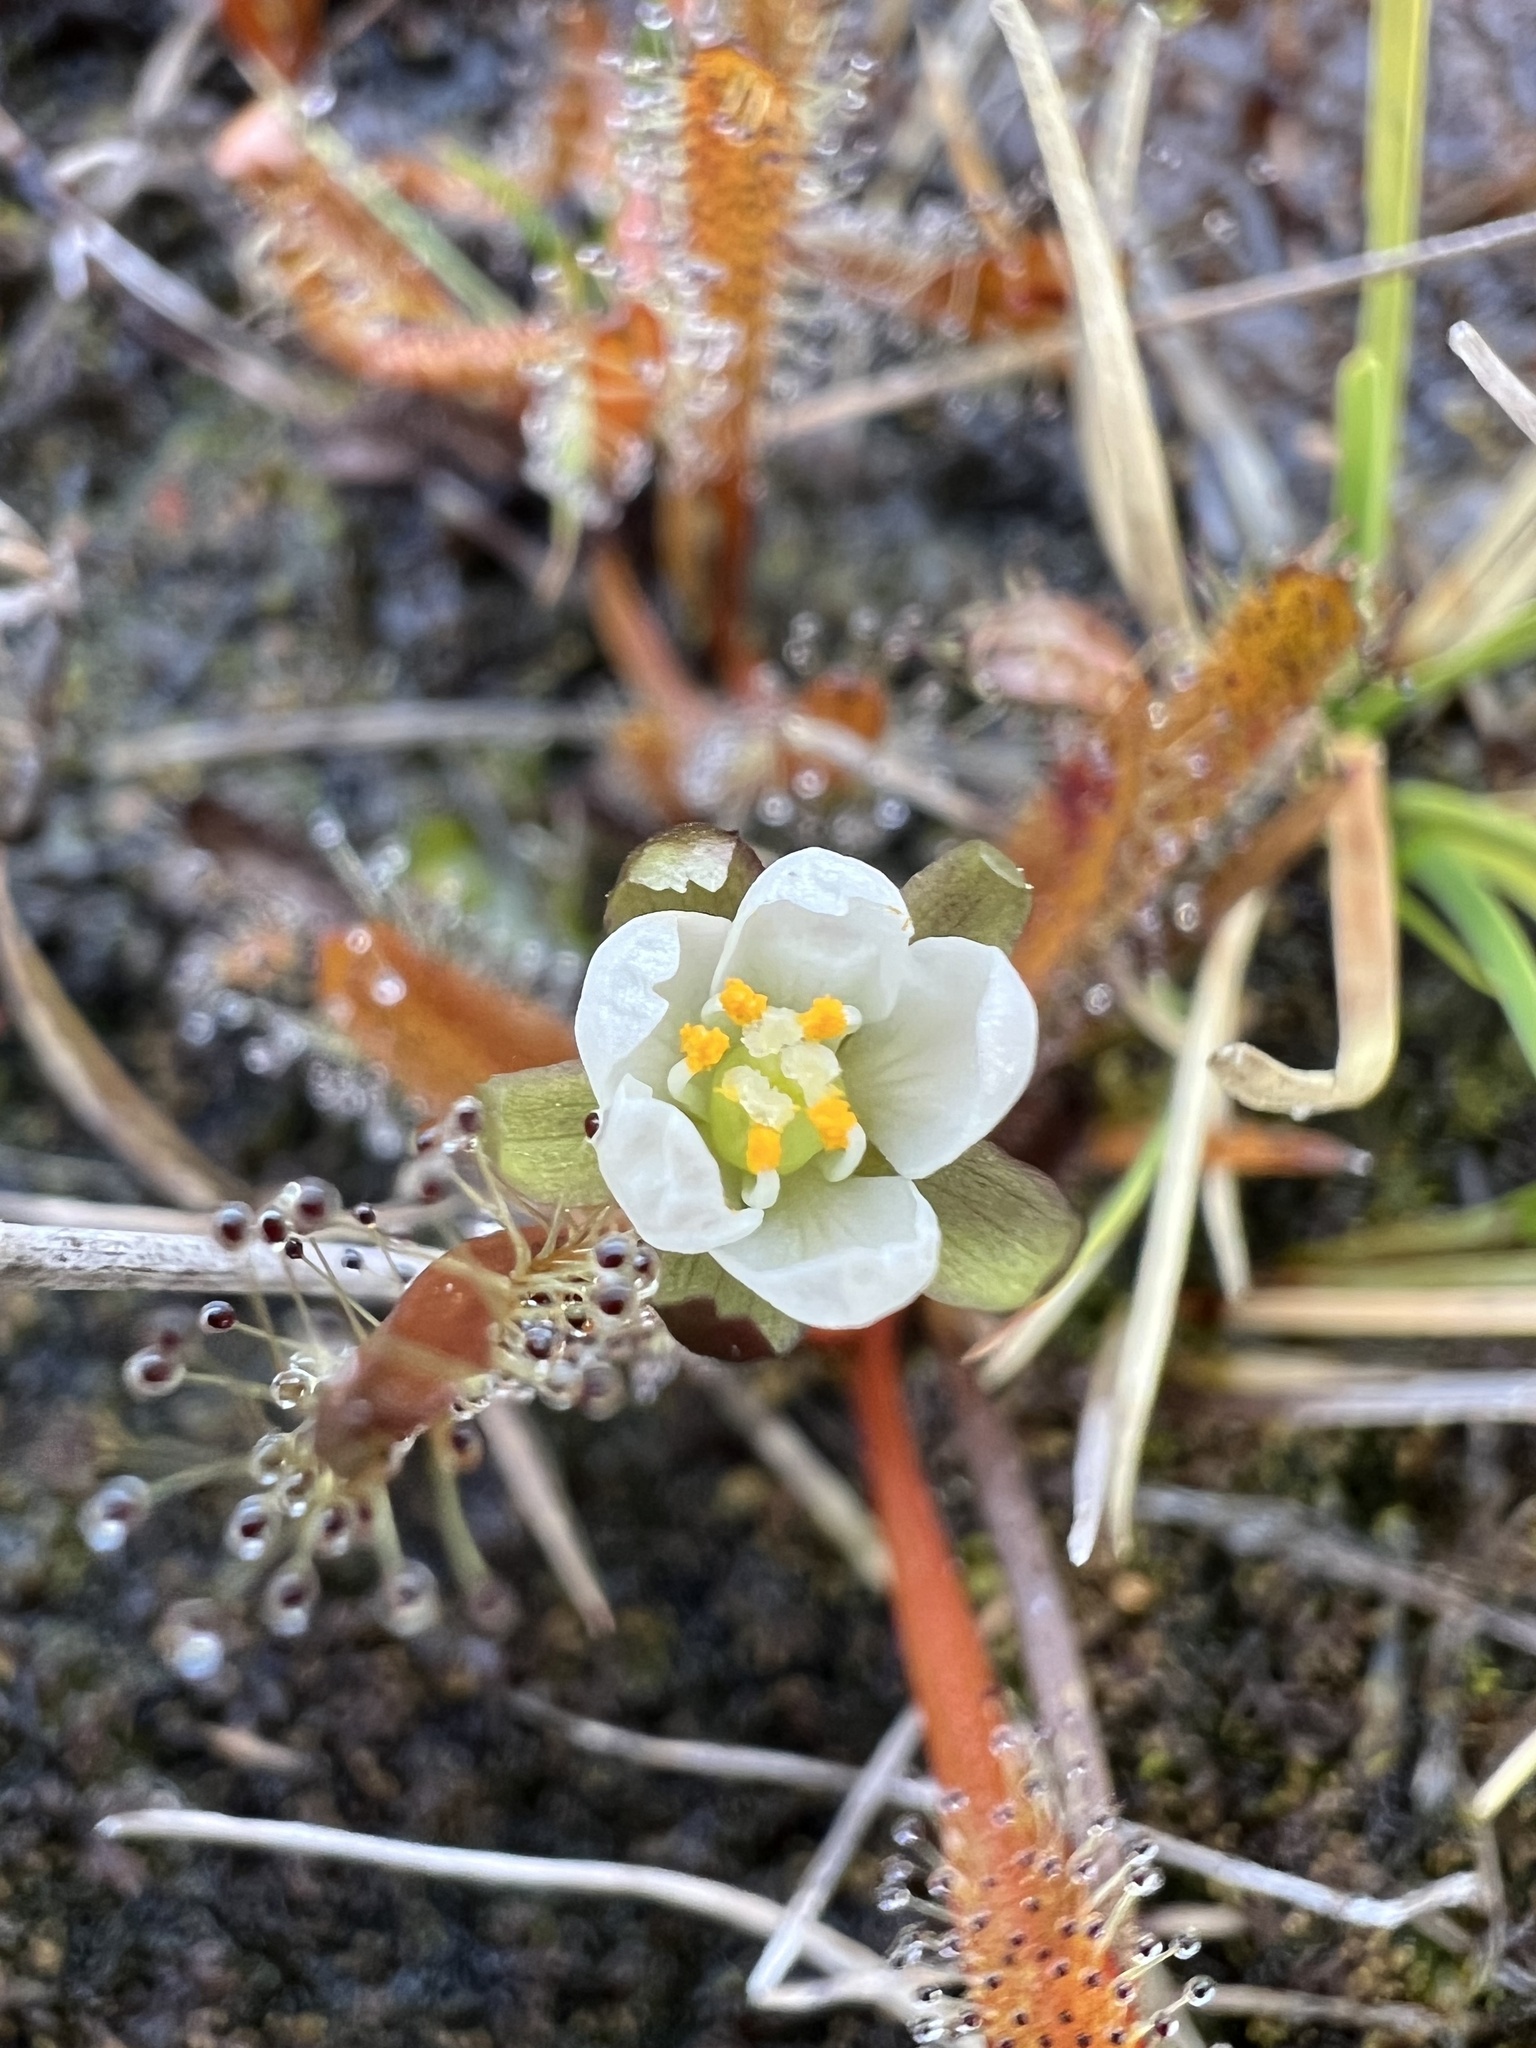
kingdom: Plantae
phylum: Tracheophyta
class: Magnoliopsida
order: Caryophyllales
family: Droseraceae
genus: Drosera
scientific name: Drosera arcturi
